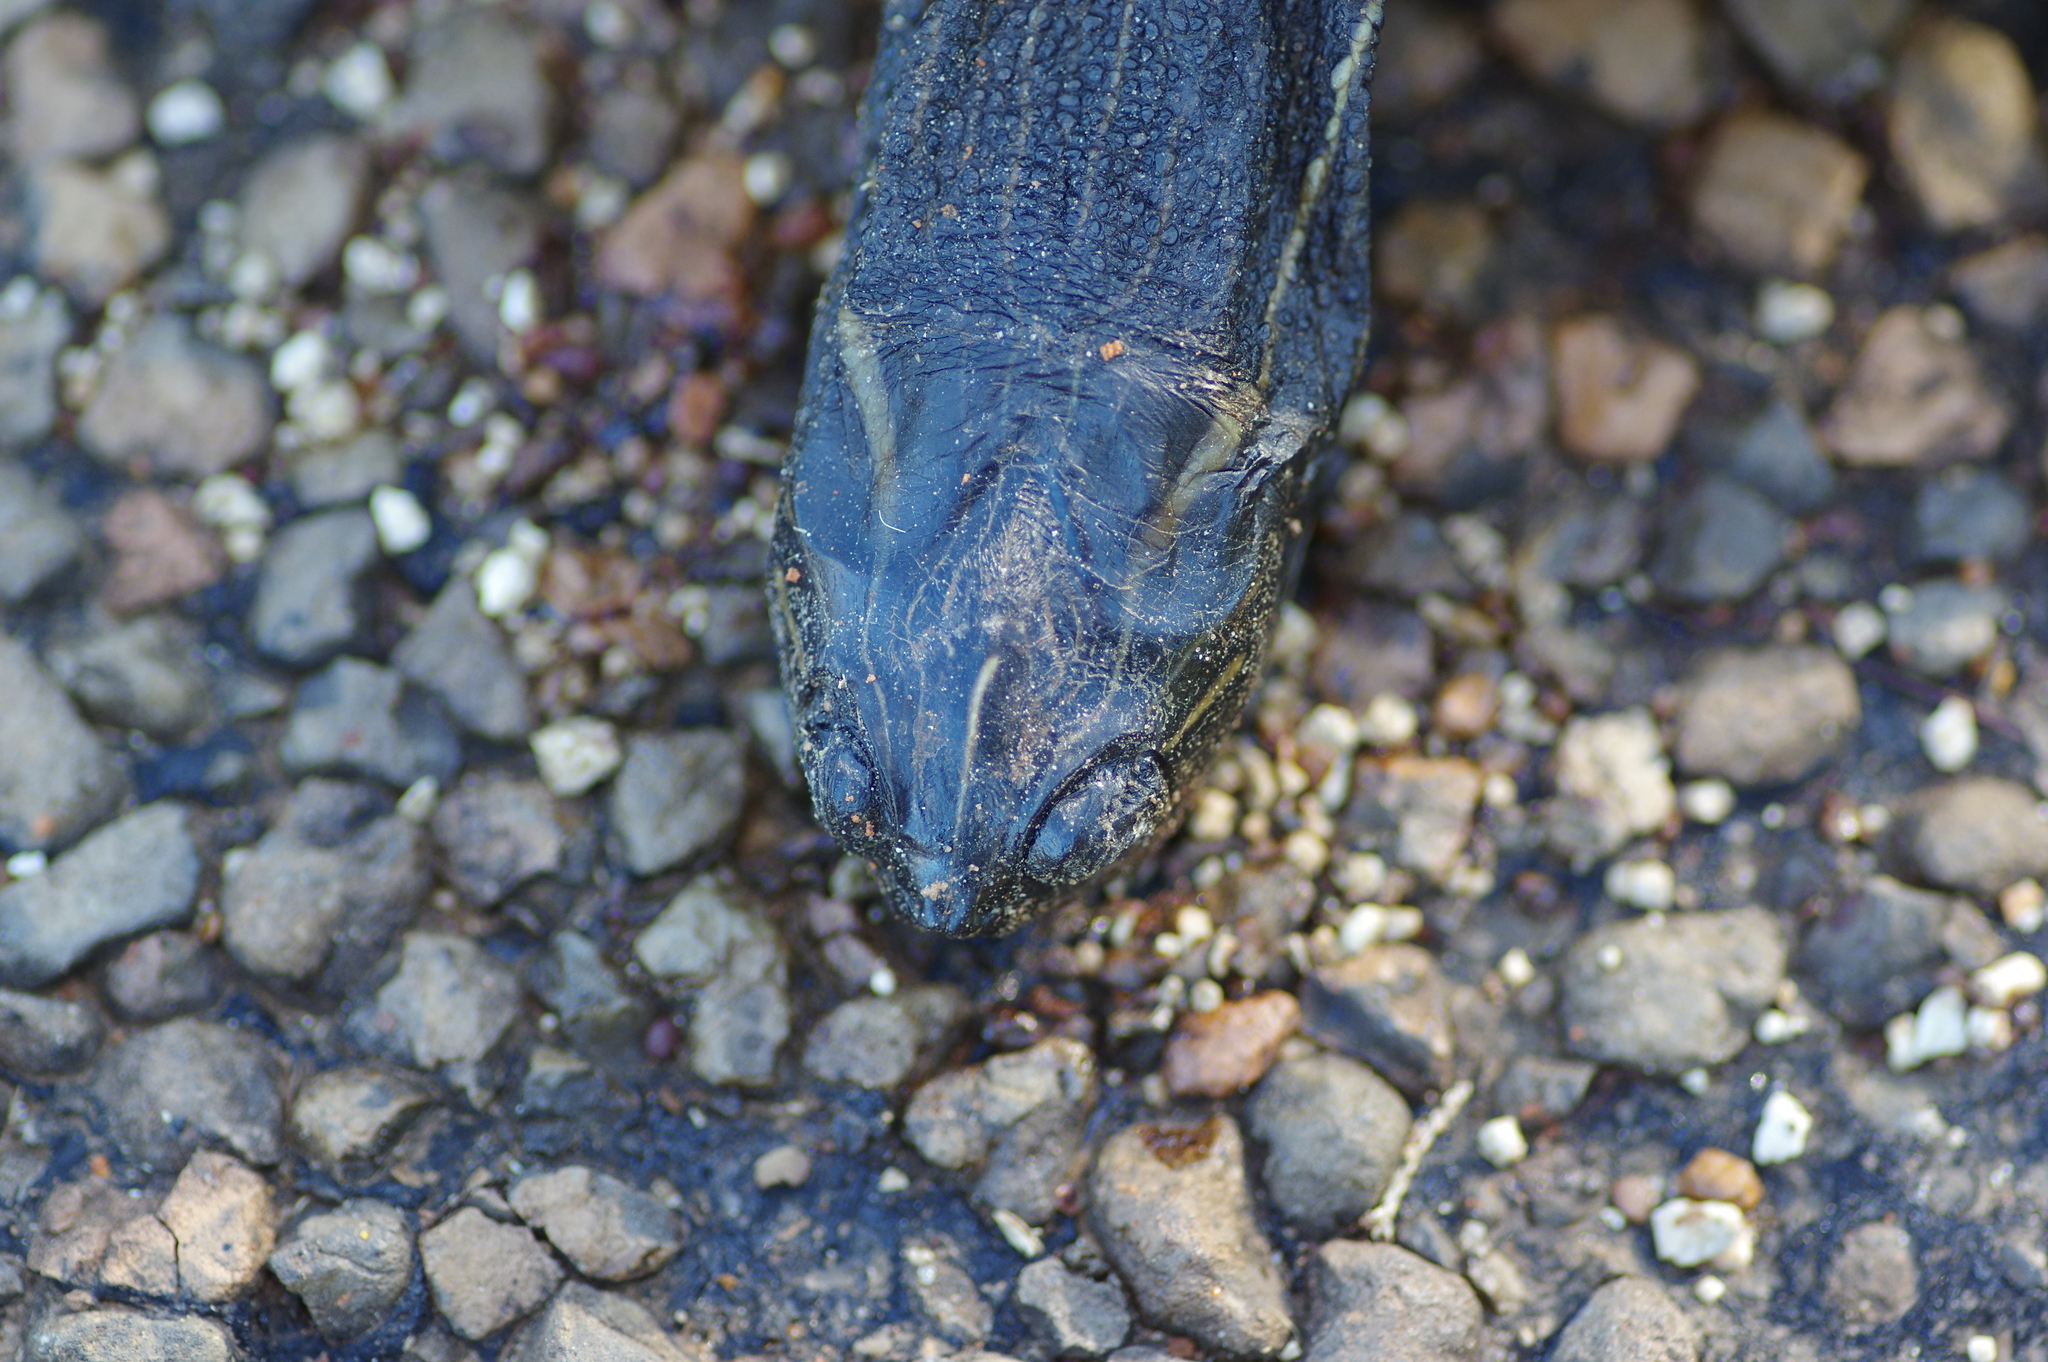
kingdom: Animalia
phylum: Chordata
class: Testudines
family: Emydidae
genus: Pseudemys
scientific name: Pseudemys concinna
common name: Eastern river cooter
